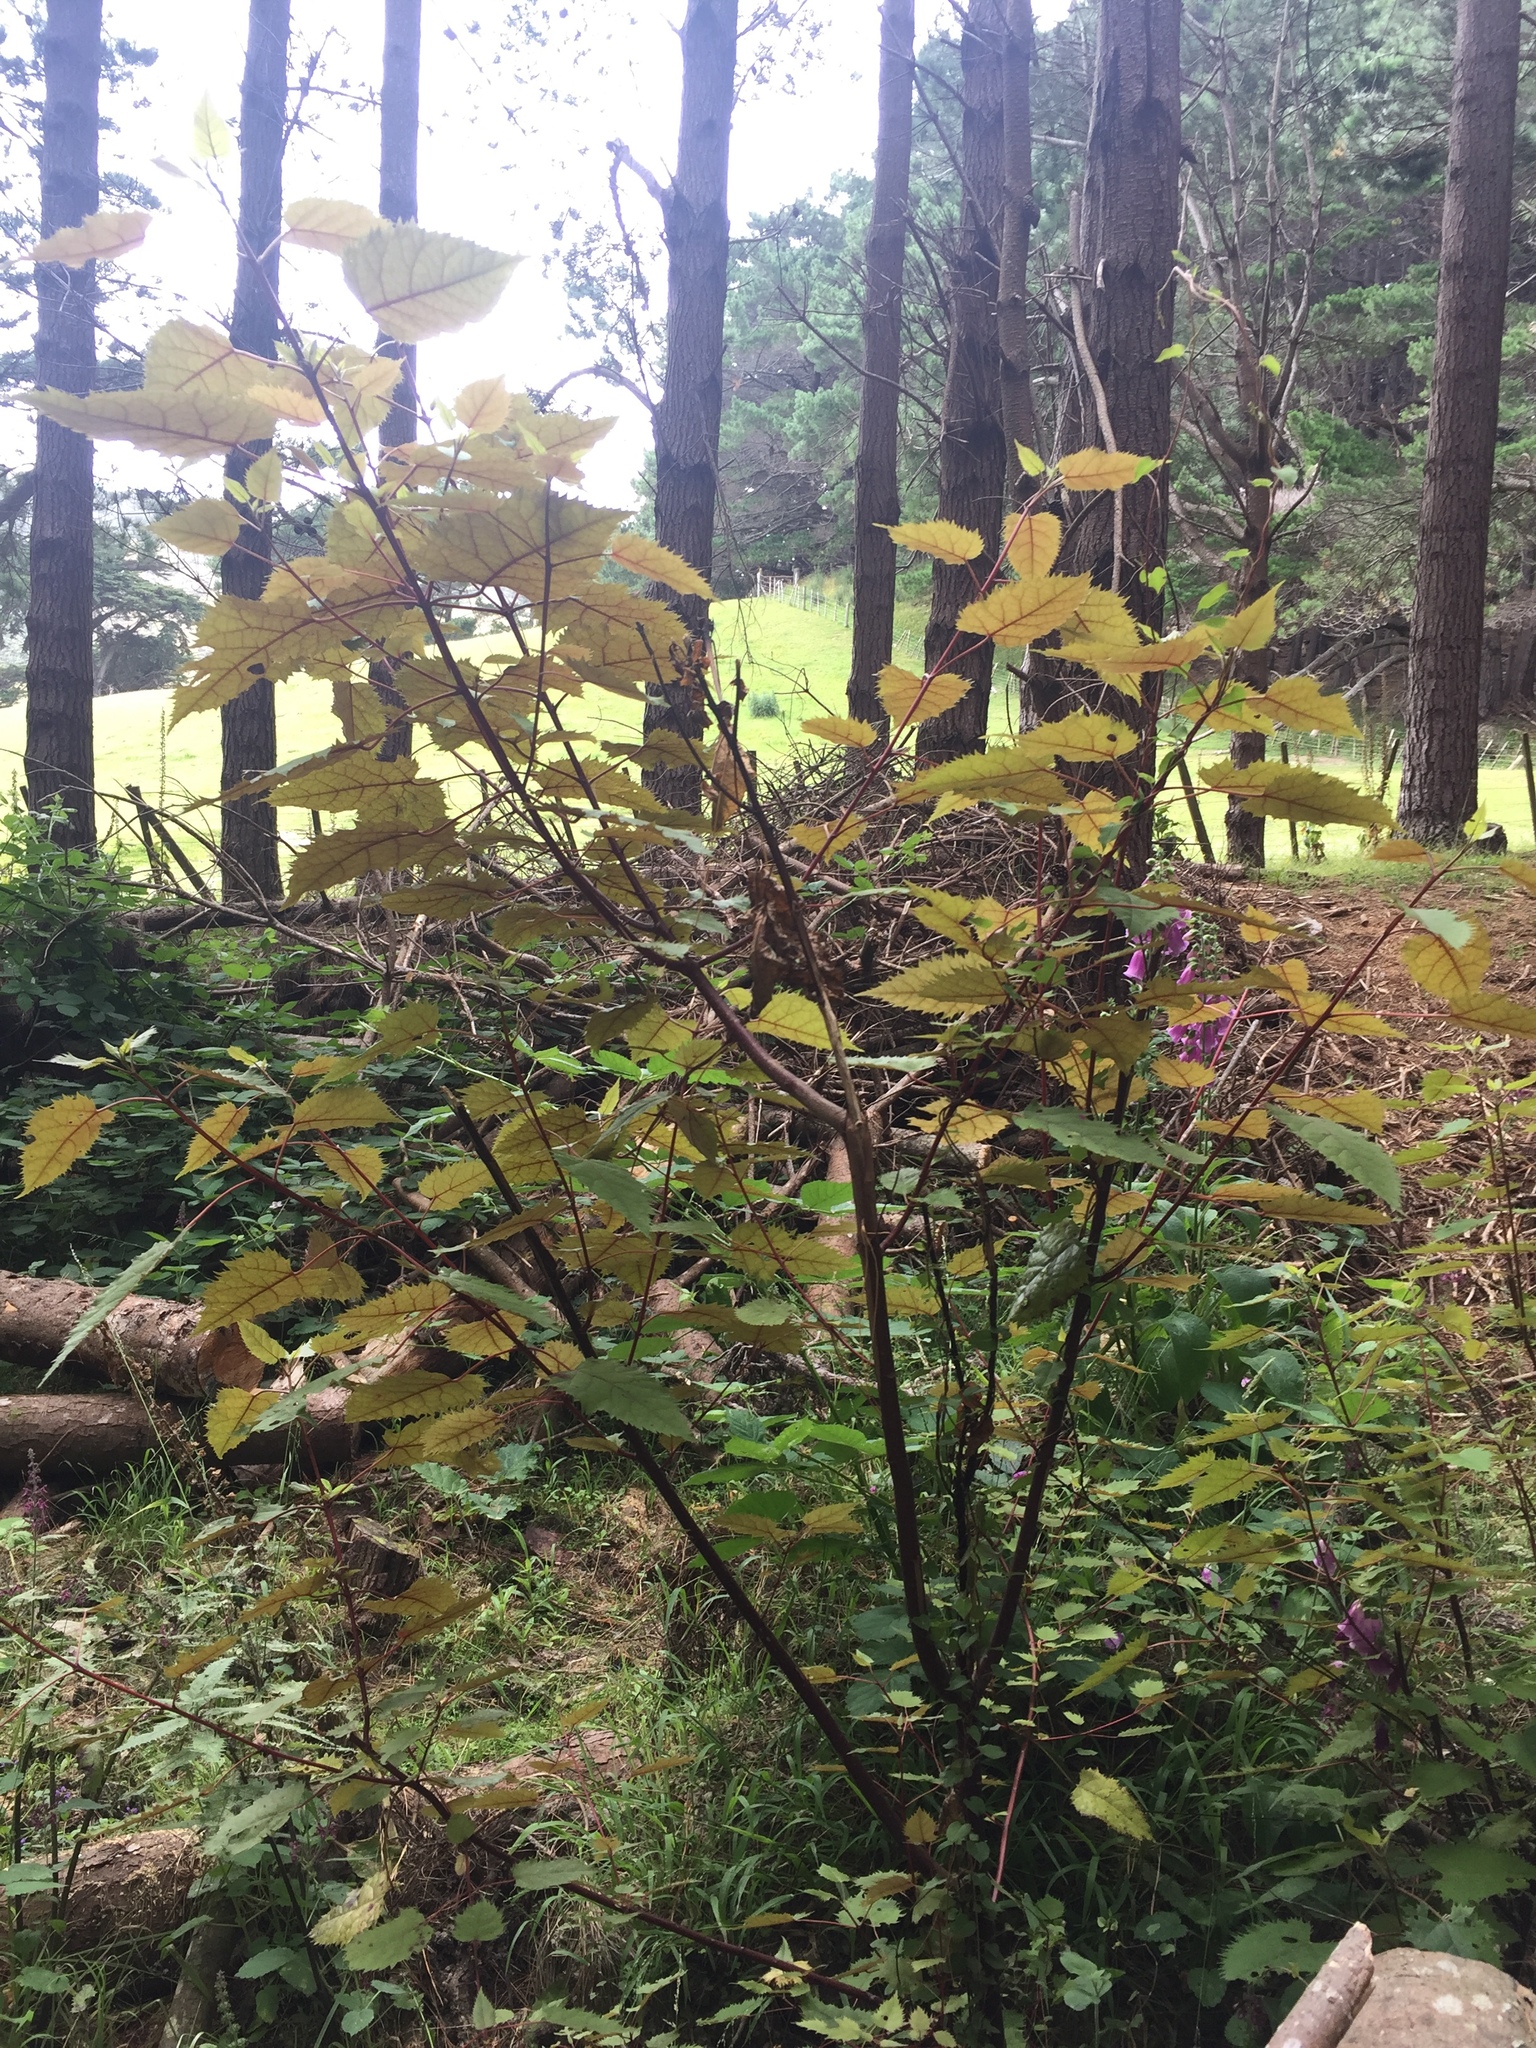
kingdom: Plantae
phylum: Tracheophyta
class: Magnoliopsida
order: Oxalidales
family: Elaeocarpaceae
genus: Aristotelia
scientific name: Aristotelia serrata
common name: New zealand wineberry
